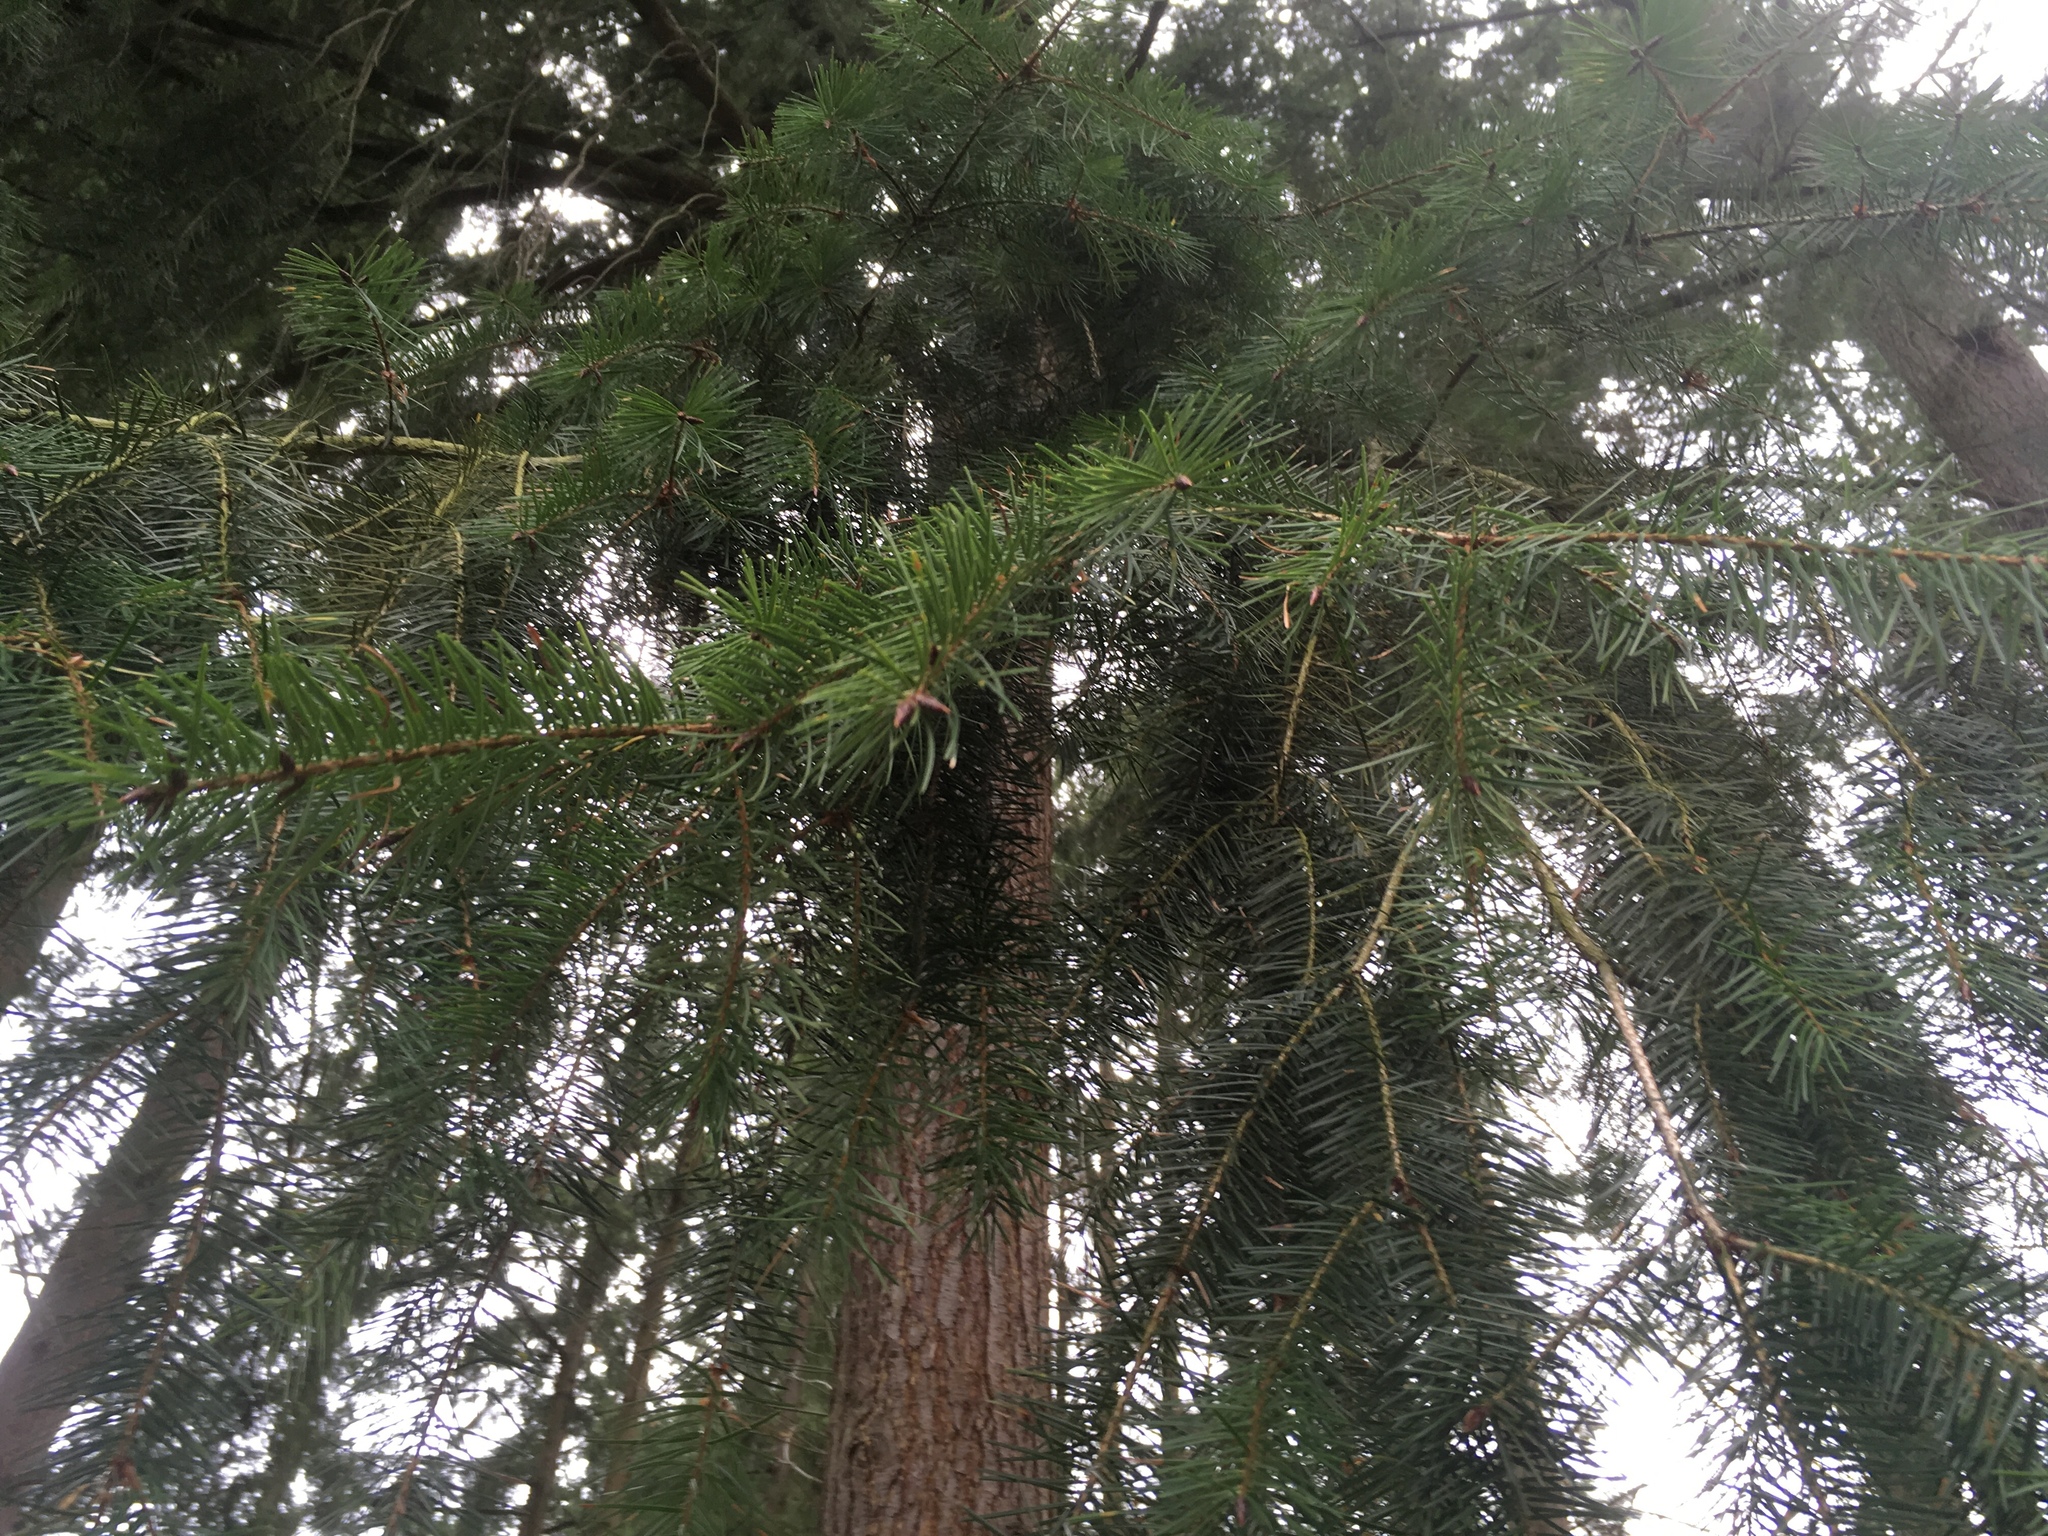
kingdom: Plantae
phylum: Tracheophyta
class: Pinopsida
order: Pinales
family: Pinaceae
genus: Pseudotsuga
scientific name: Pseudotsuga menziesii
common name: Douglas fir
